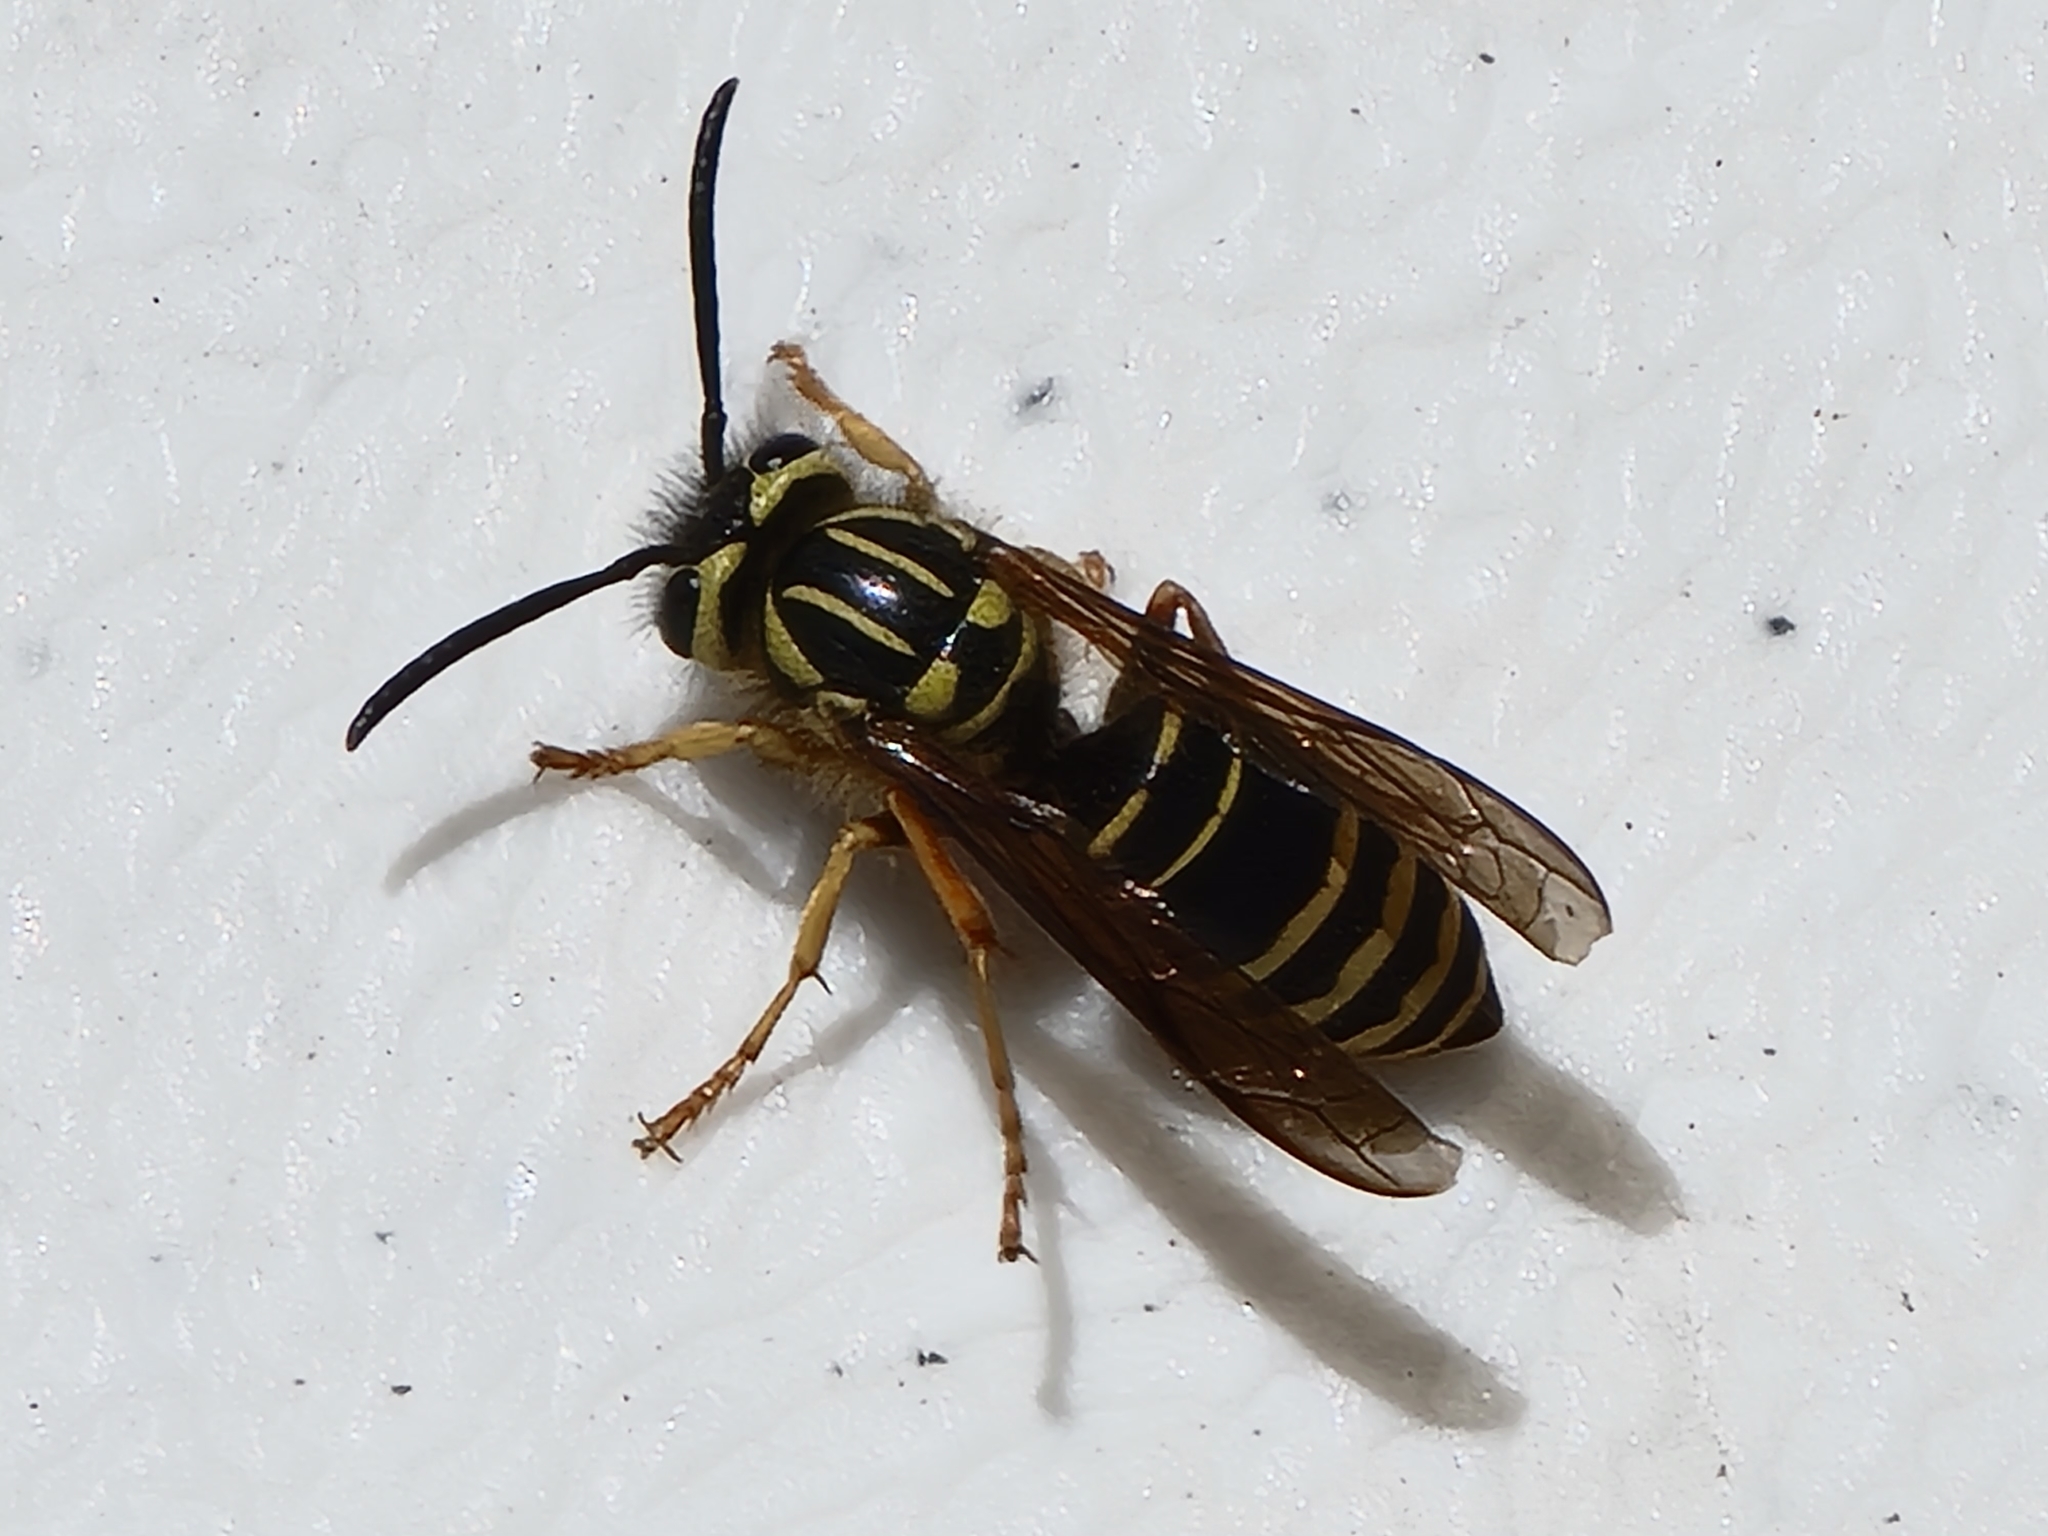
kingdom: Animalia
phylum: Arthropoda
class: Insecta
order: Hymenoptera
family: Vespidae
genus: Vespula
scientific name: Vespula squamosa
